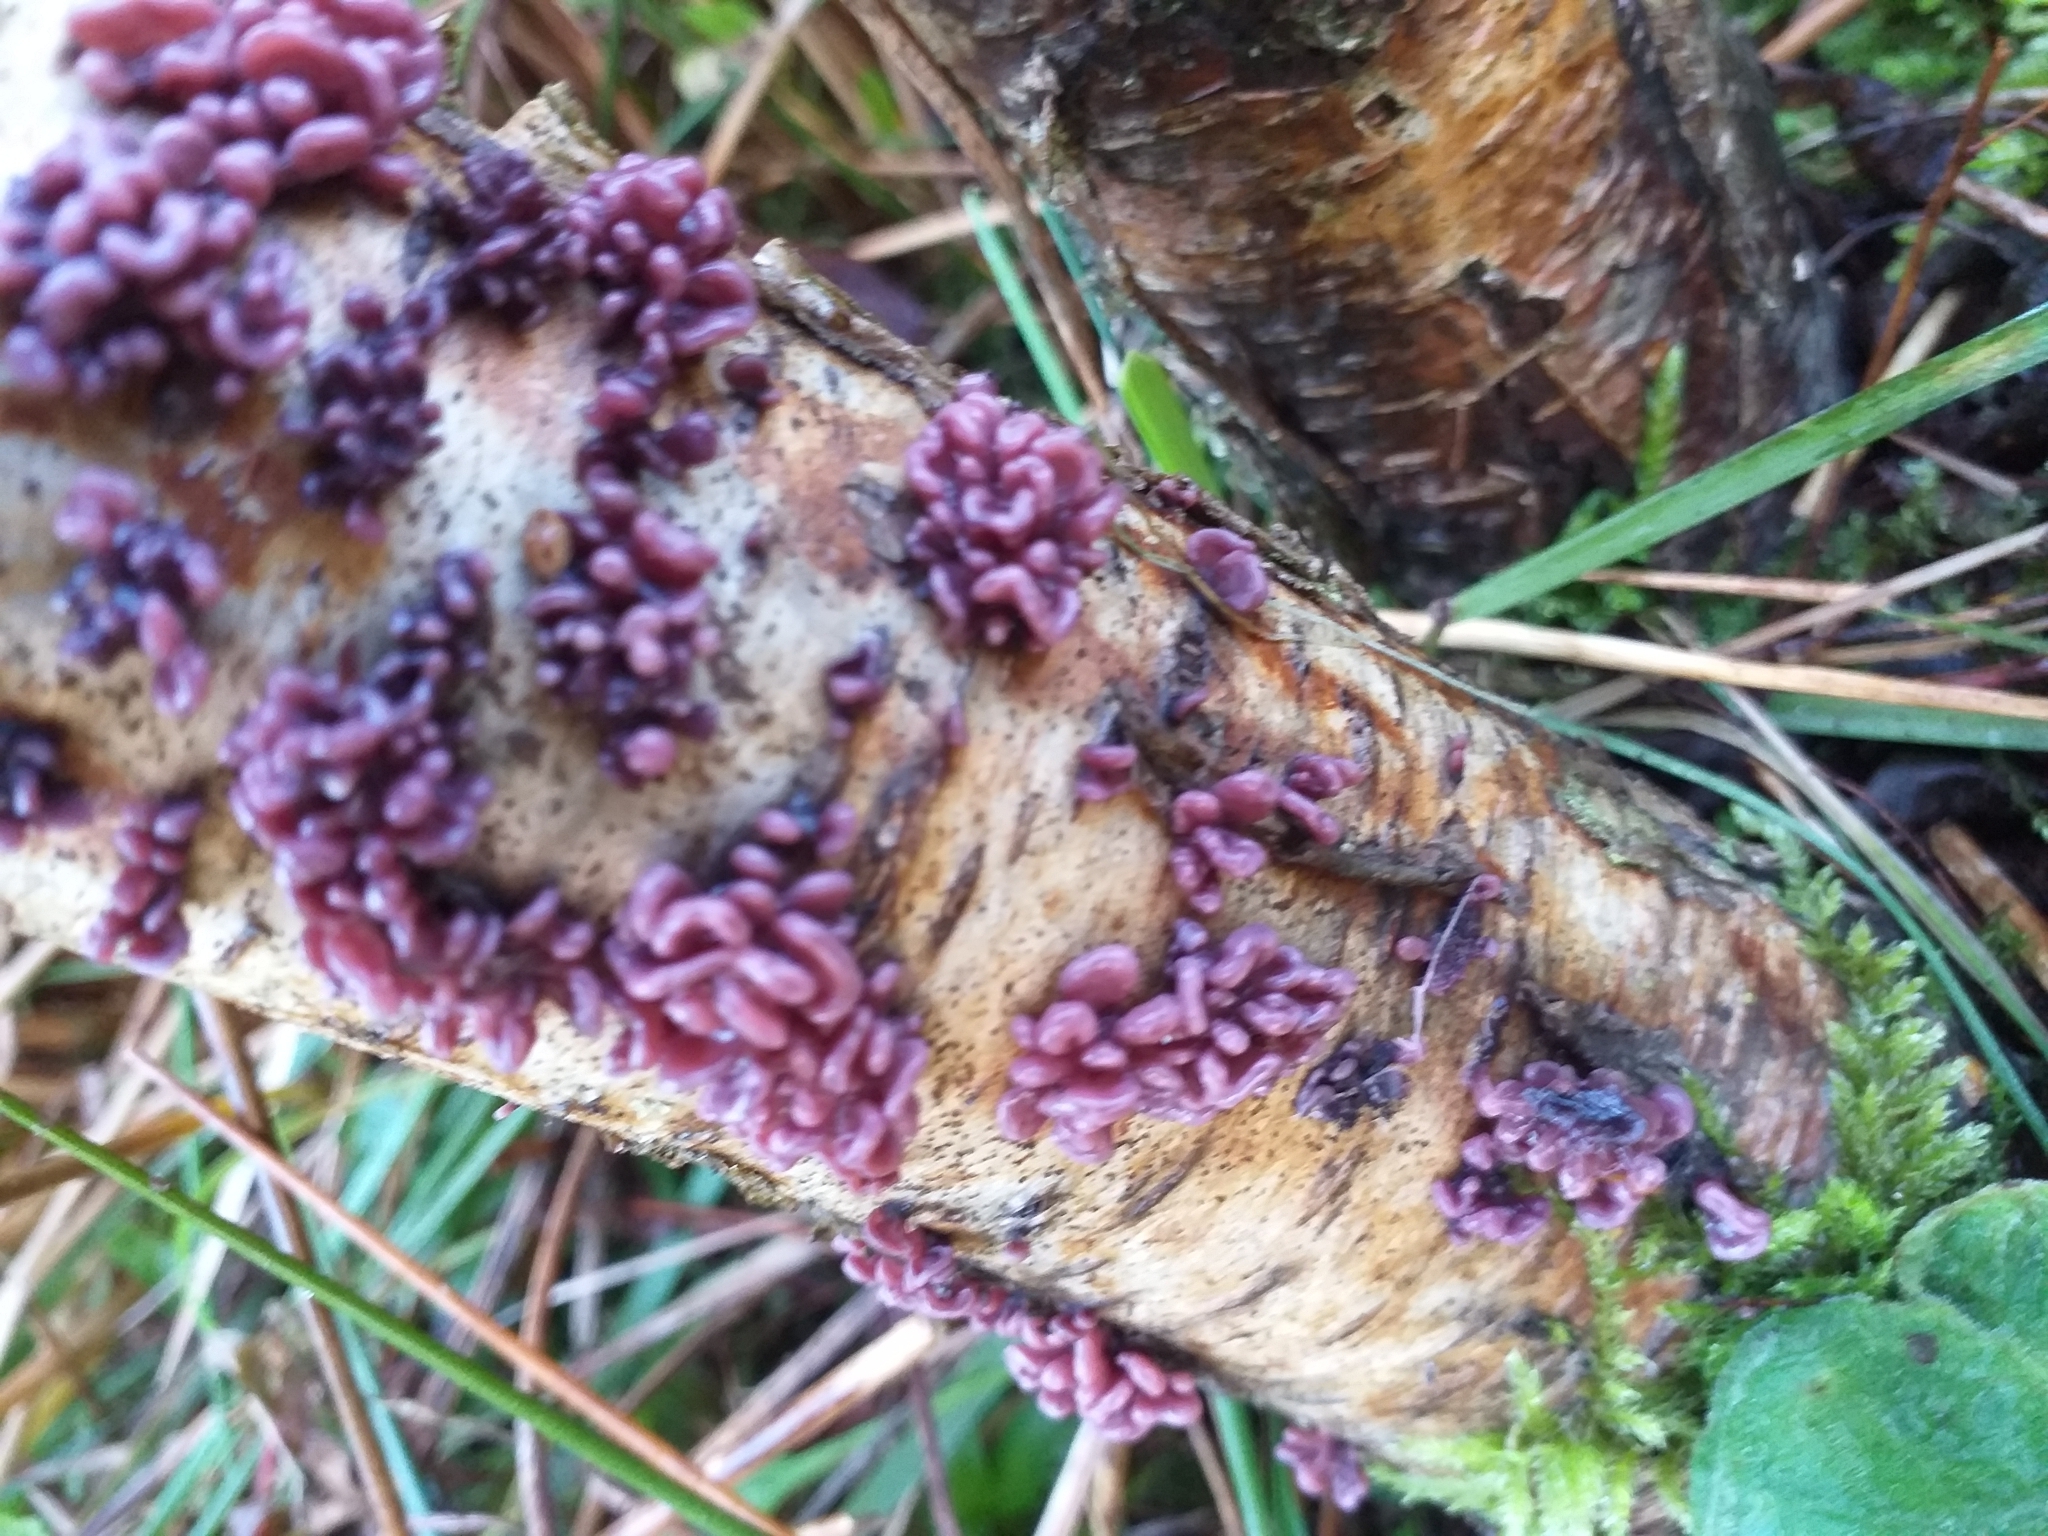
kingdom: Fungi
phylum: Ascomycota
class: Leotiomycetes
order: Helotiales
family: Gelatinodiscaceae
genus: Ascocoryne
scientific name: Ascocoryne sarcoides
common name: Purple jellydisc
